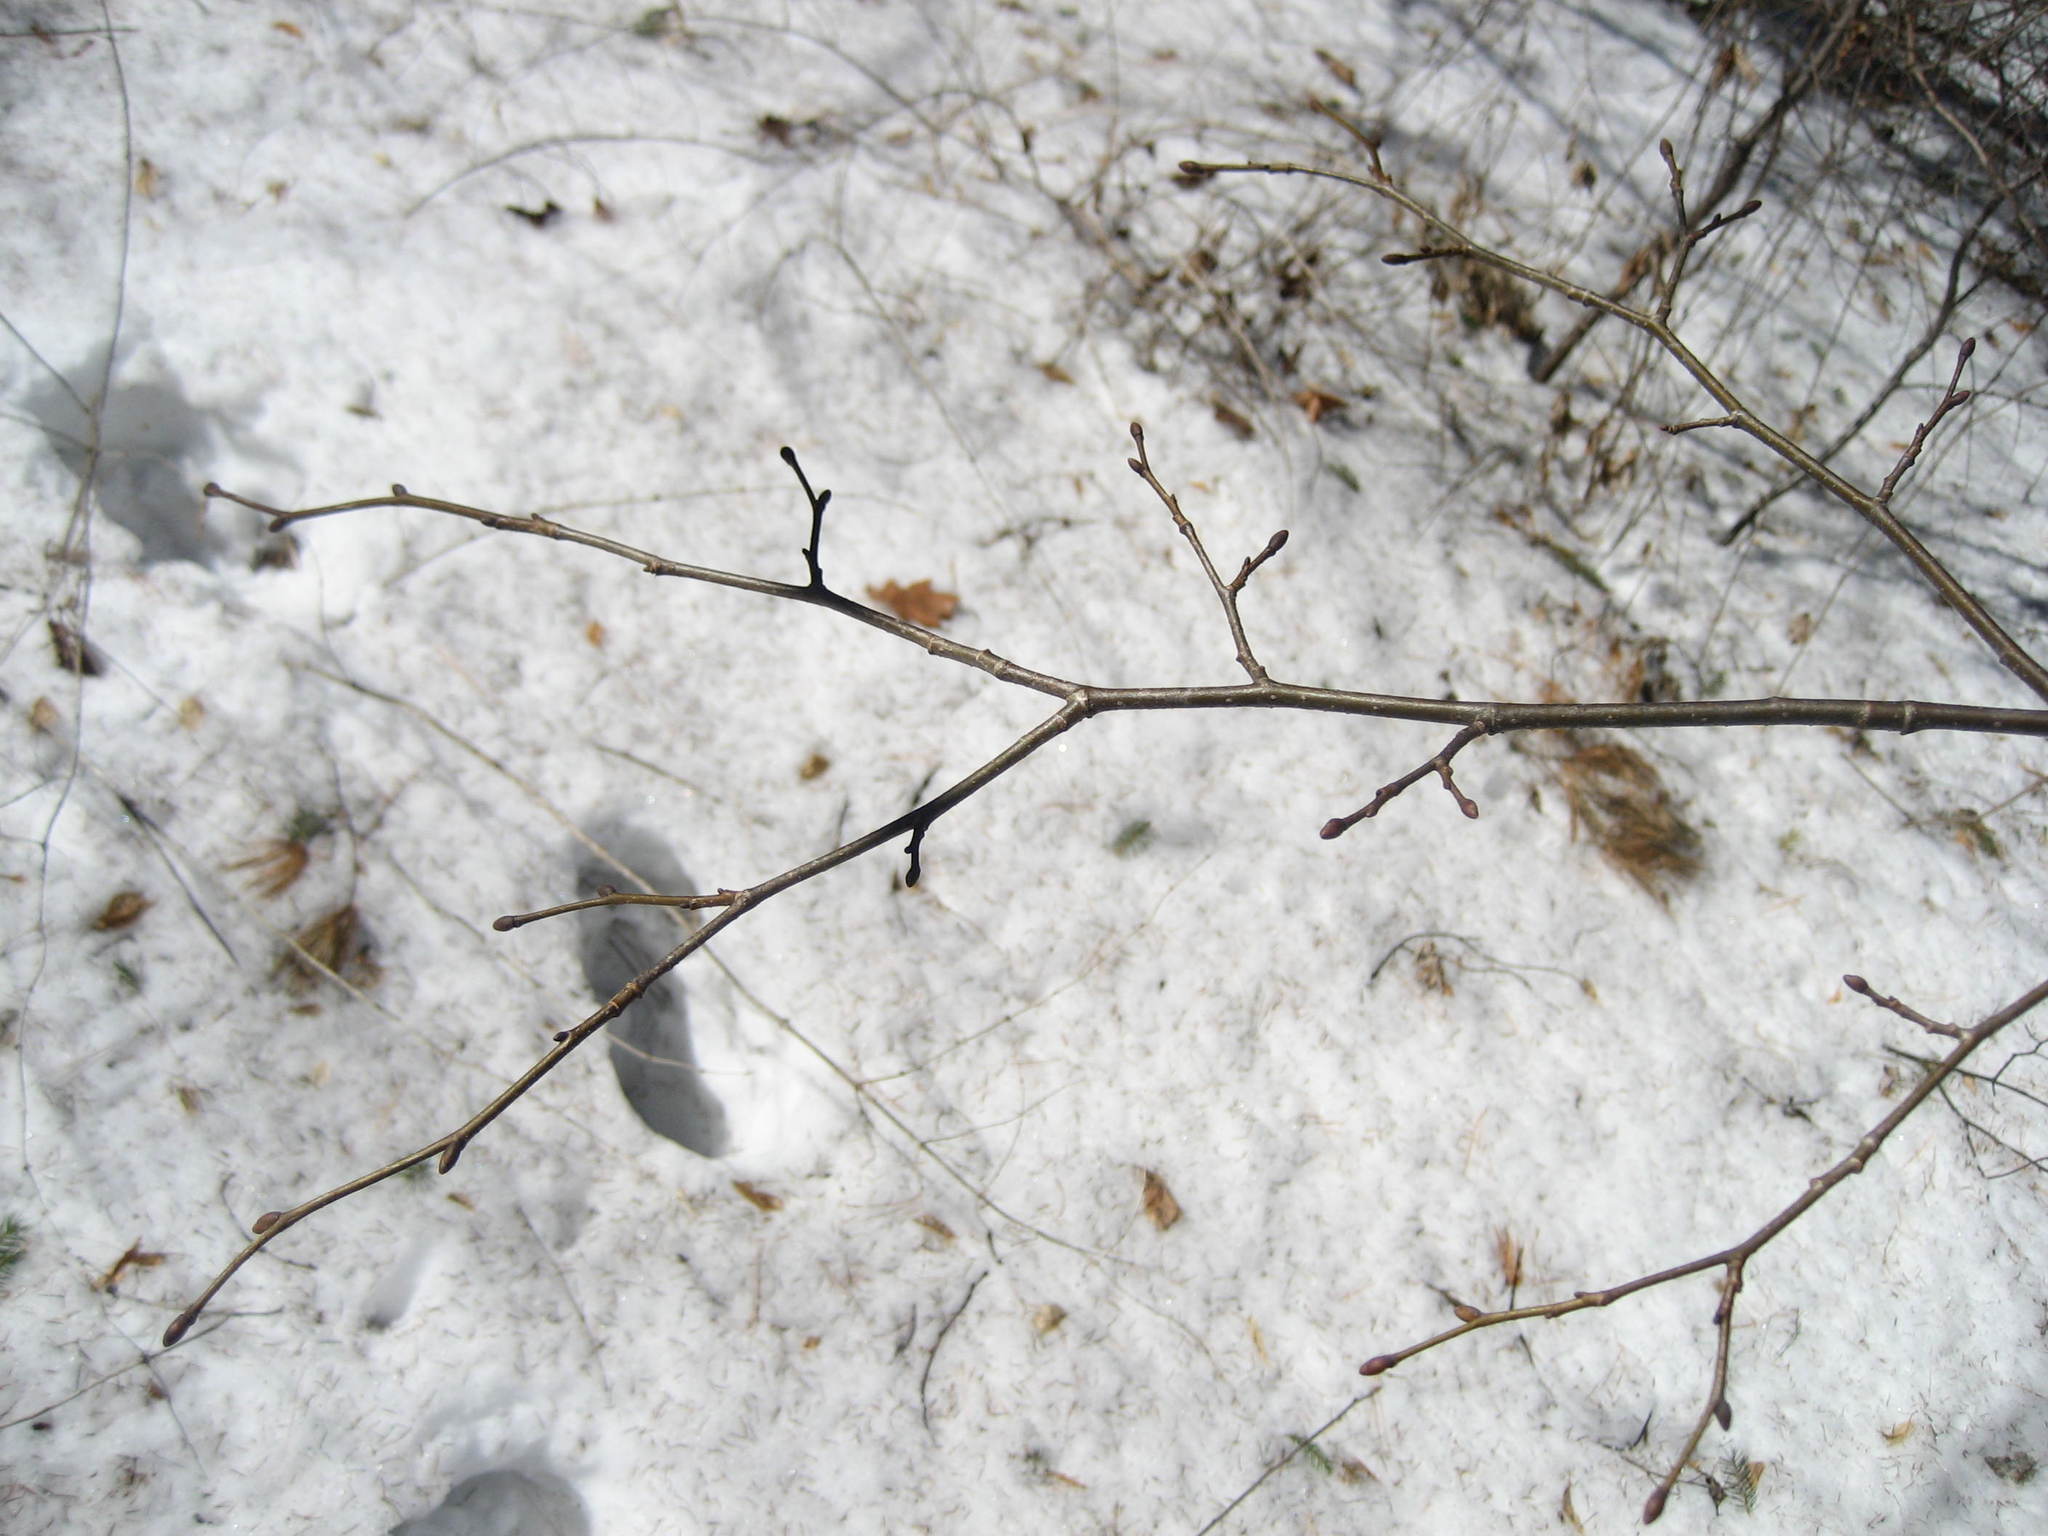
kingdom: Plantae
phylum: Tracheophyta
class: Magnoliopsida
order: Malvales
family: Malvaceae
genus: Tilia
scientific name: Tilia cordata
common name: Small-leaved lime
